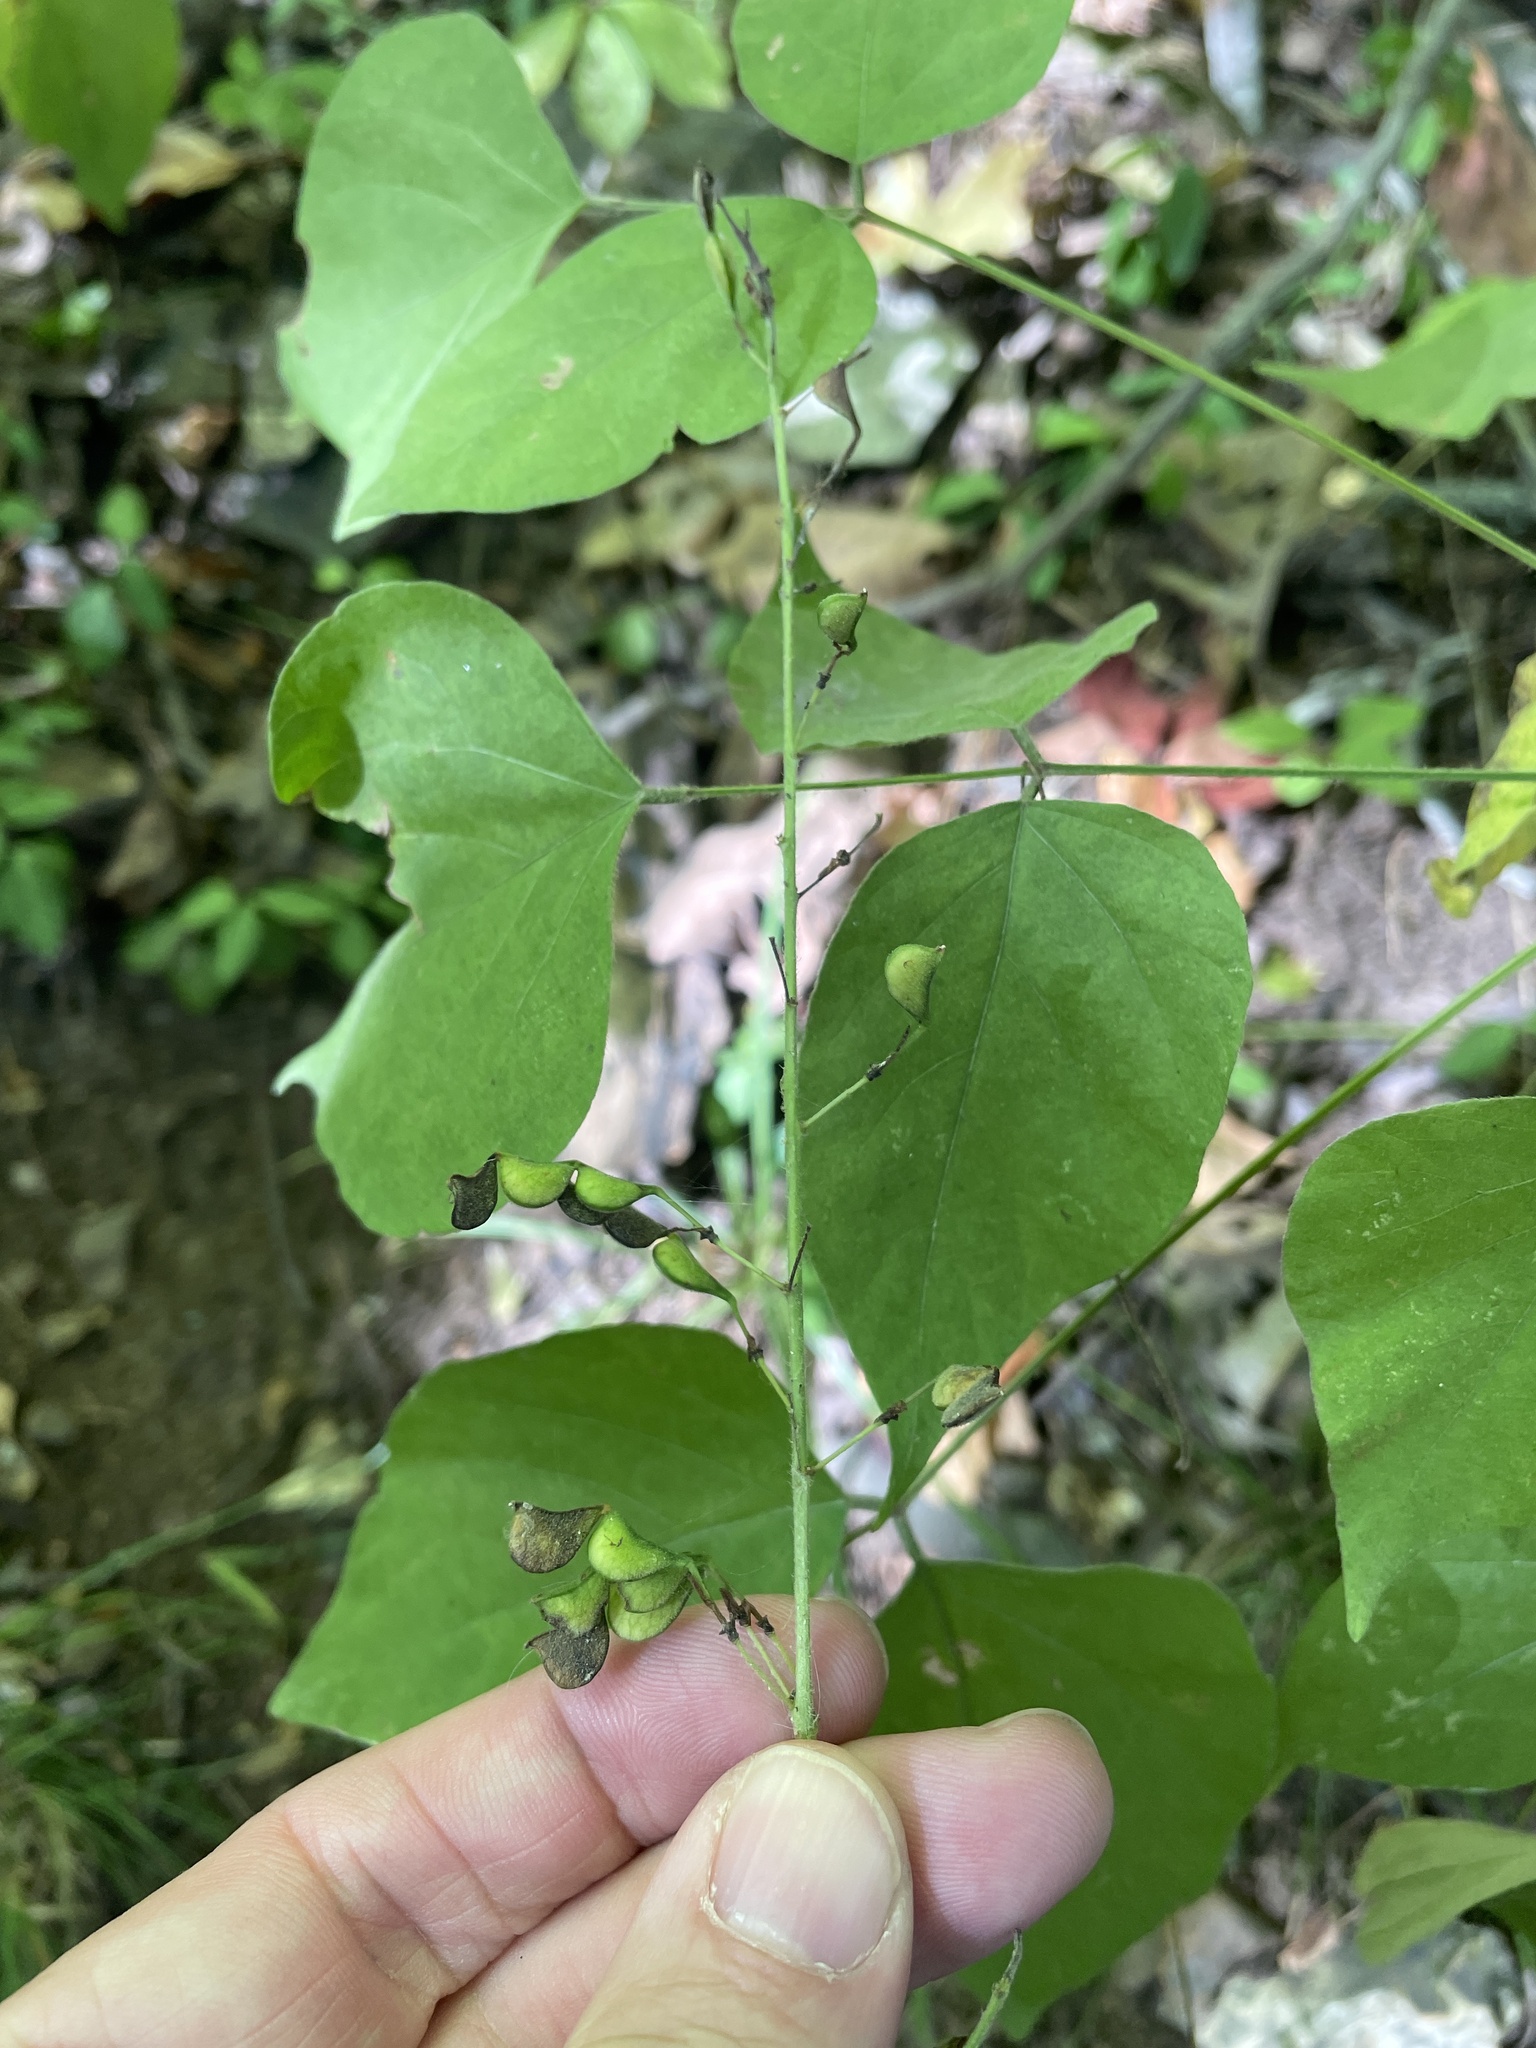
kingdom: Plantae
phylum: Tracheophyta
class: Magnoliopsida
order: Fabales
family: Fabaceae
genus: Hylodesmum
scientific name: Hylodesmum glutinosum
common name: Clustered-leaved tick-trefoil
